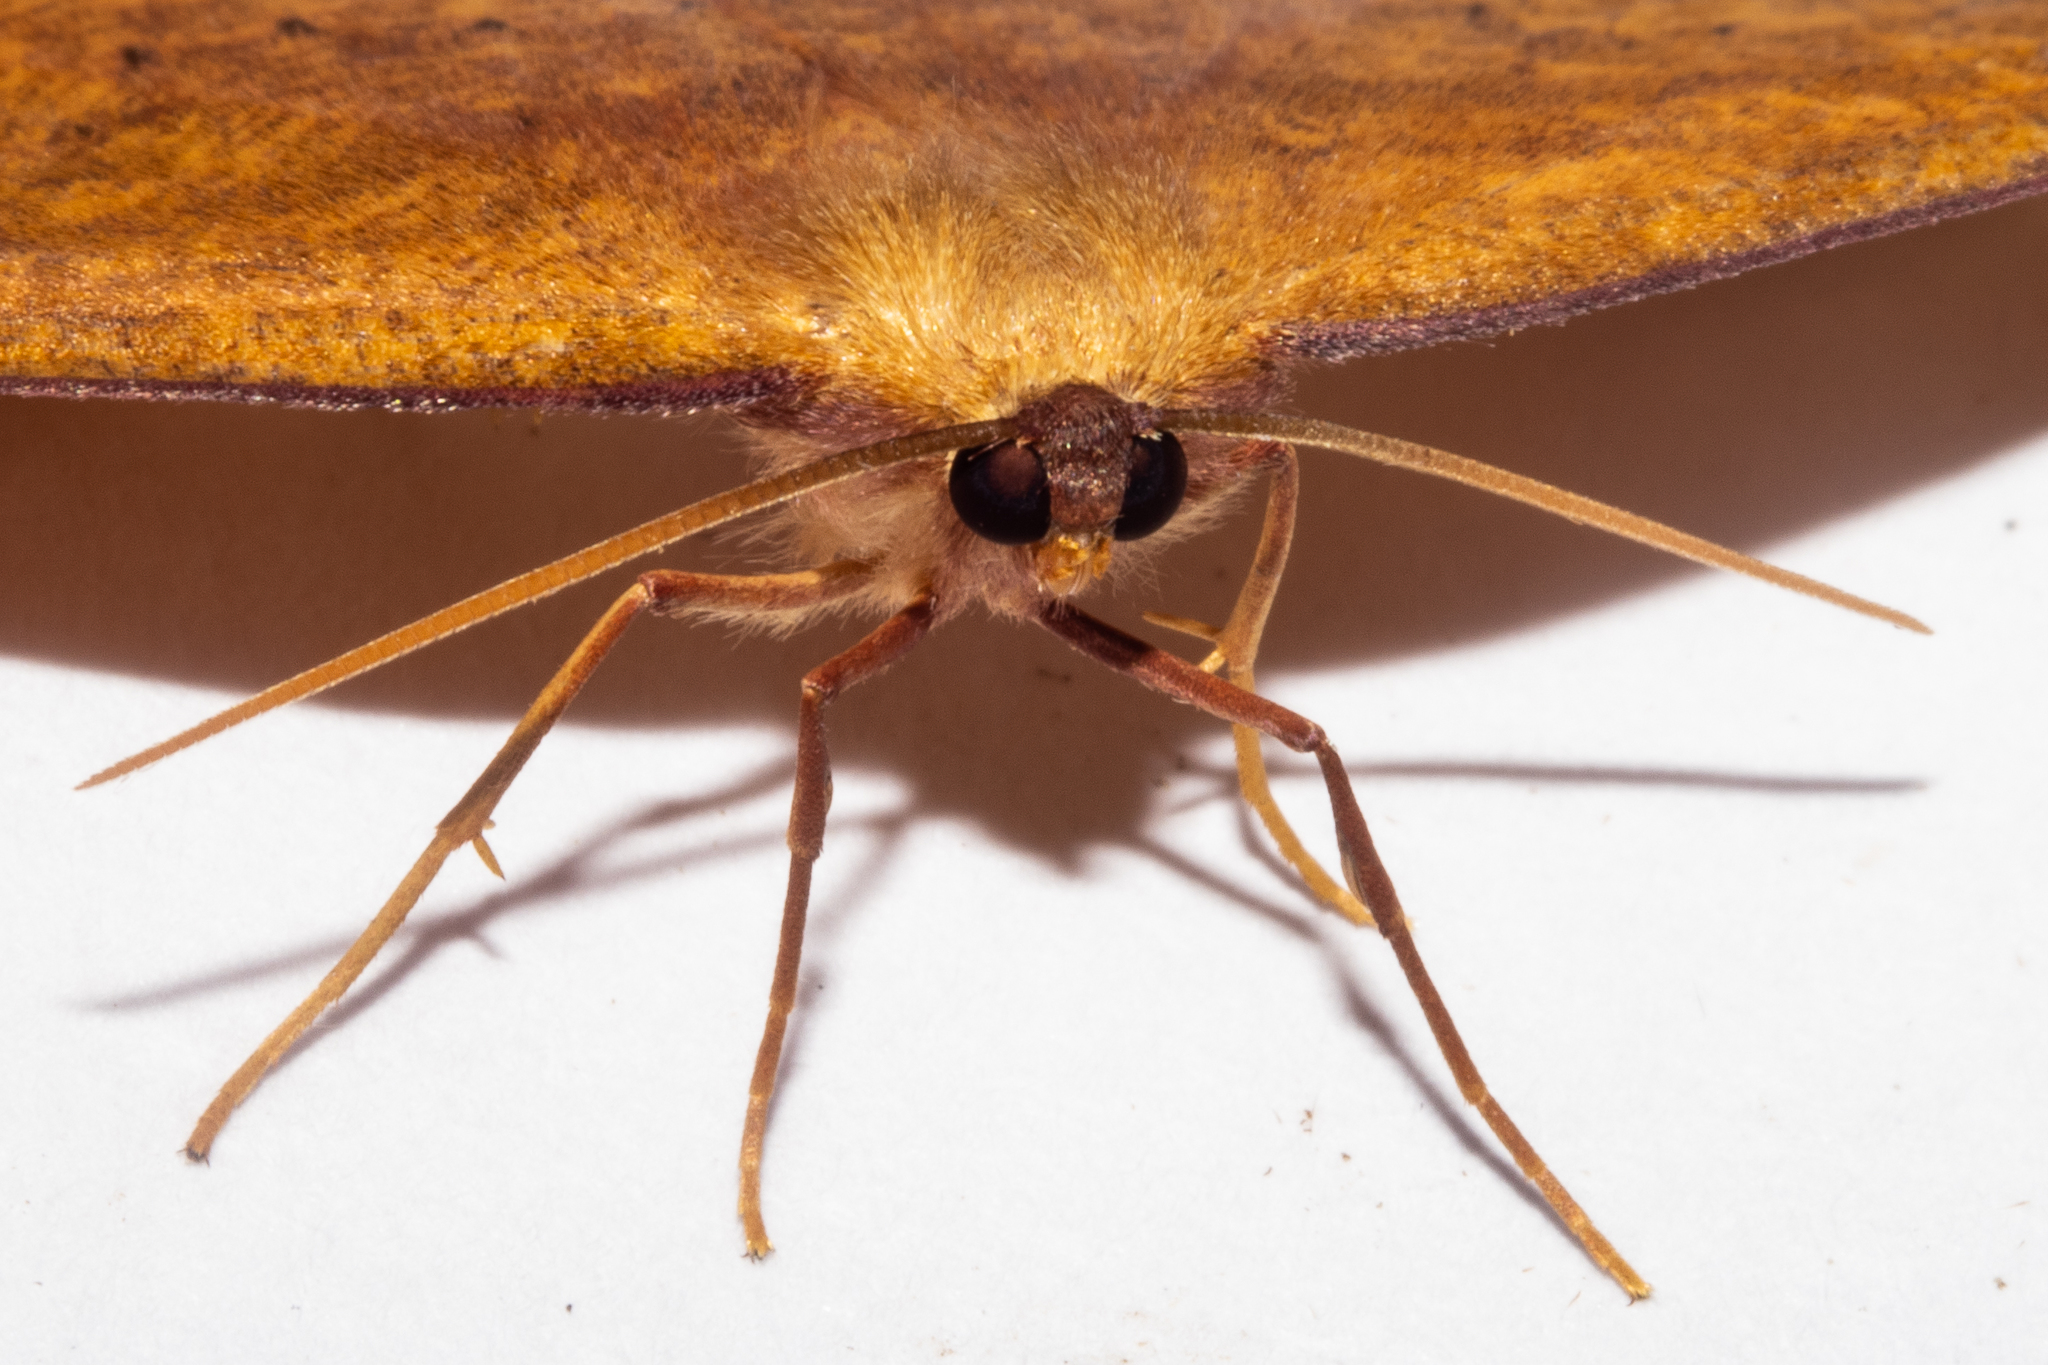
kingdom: Animalia
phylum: Arthropoda
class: Insecta
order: Lepidoptera
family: Geometridae
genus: Xyridacma
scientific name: Xyridacma alectoraria
